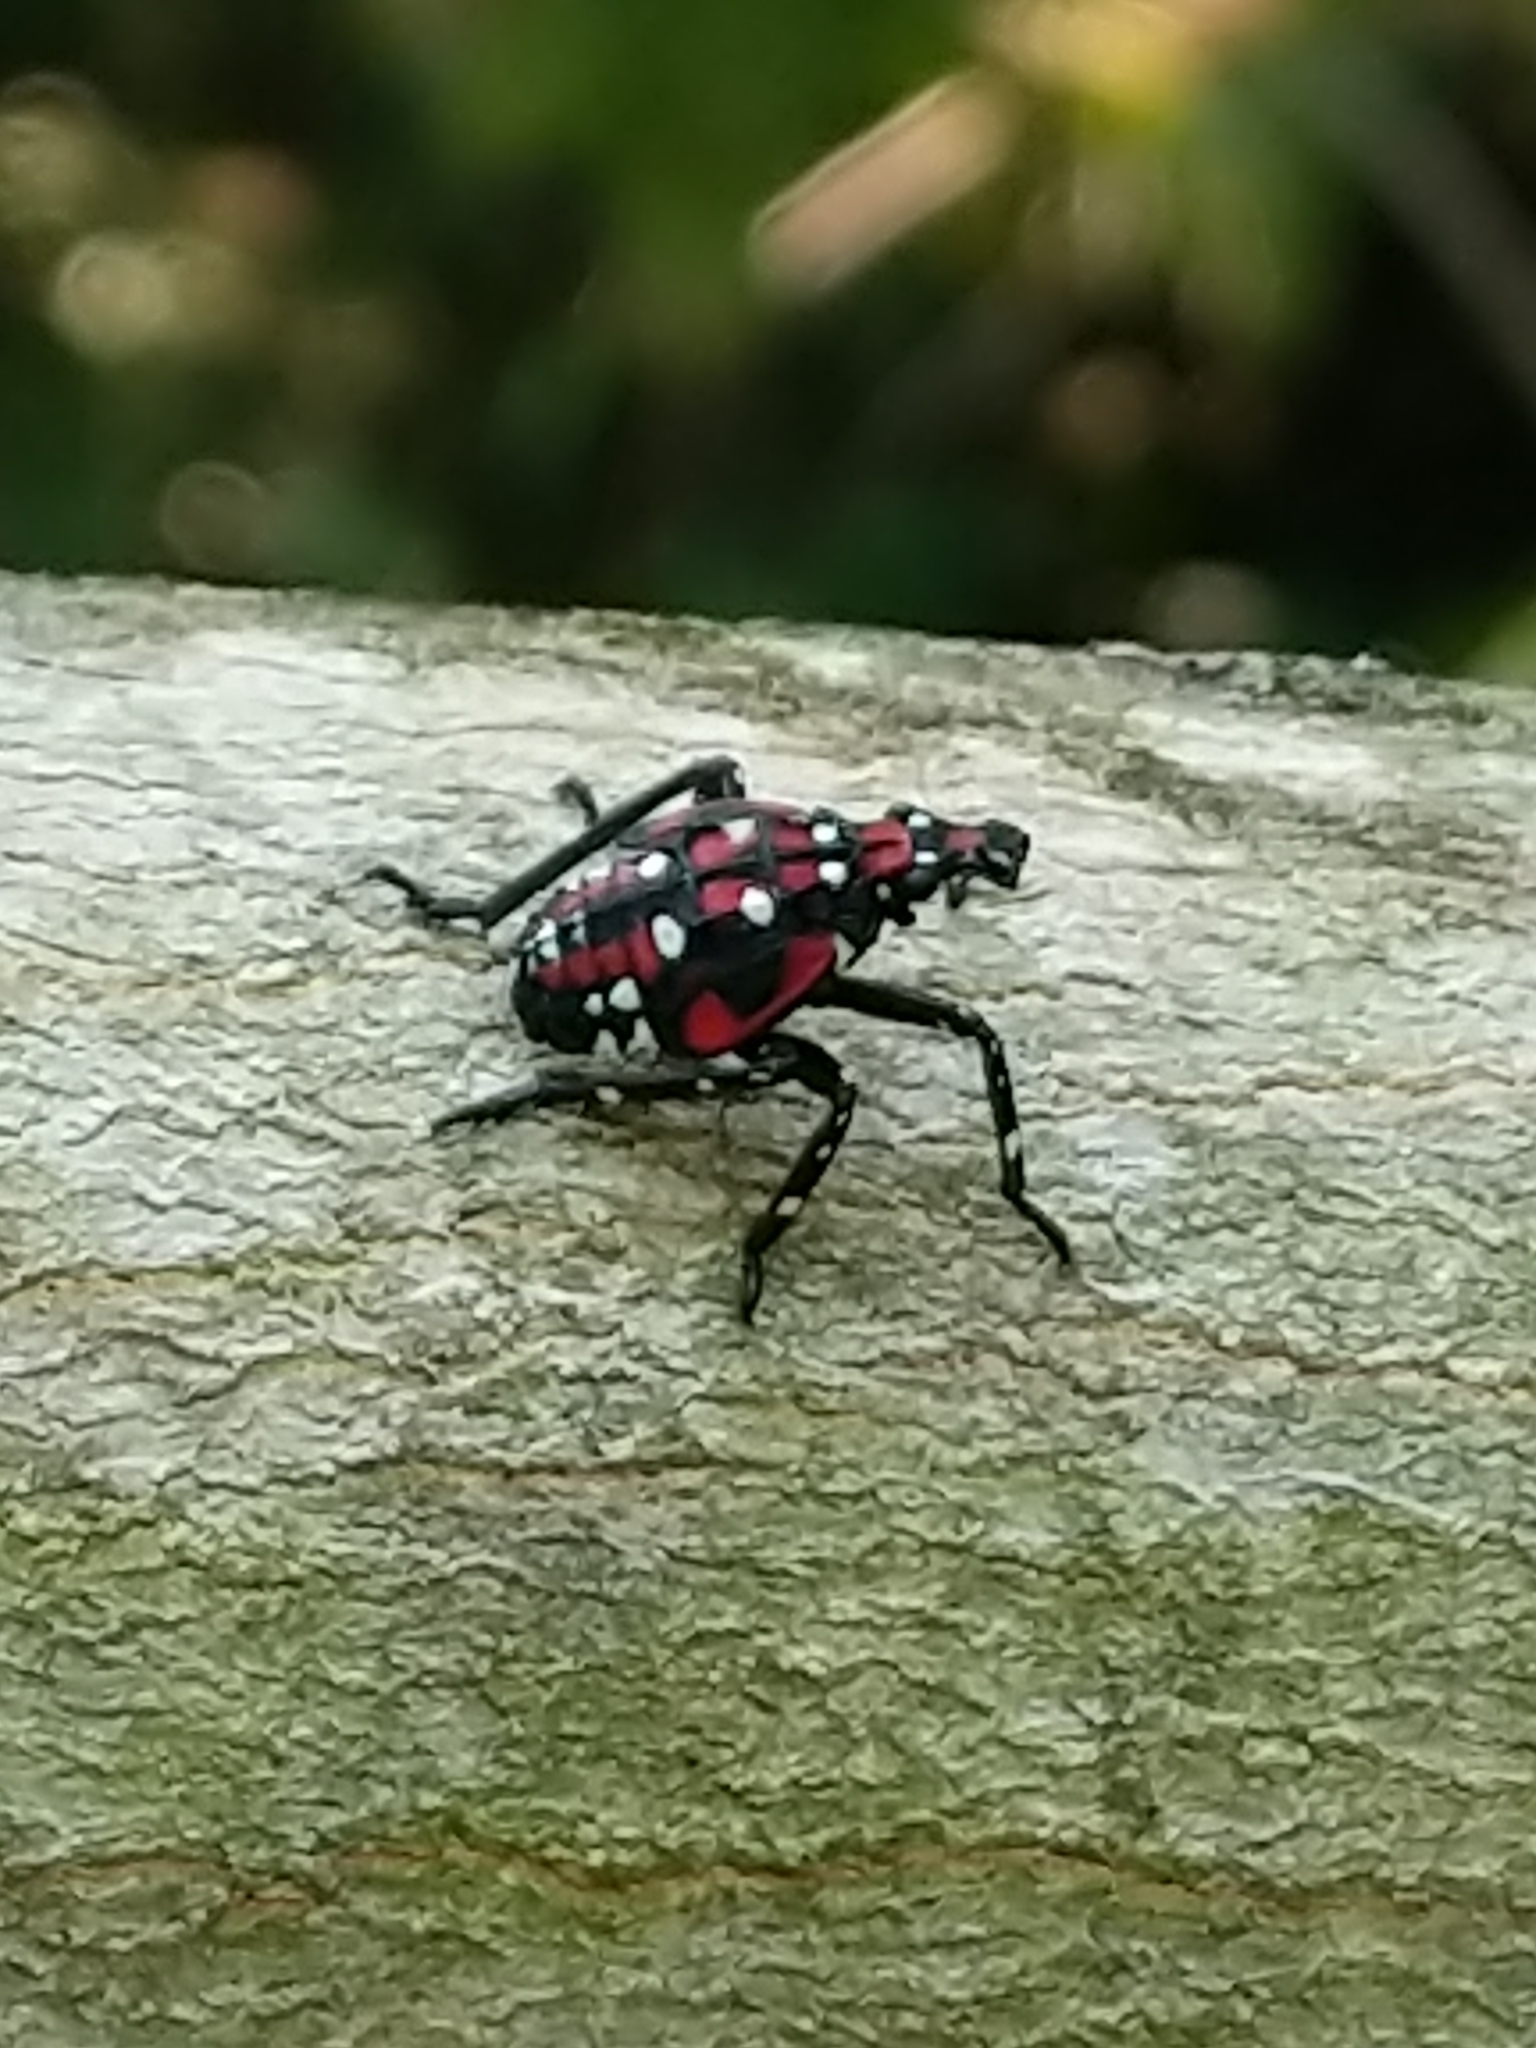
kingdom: Animalia
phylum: Arthropoda
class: Insecta
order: Hemiptera
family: Fulgoridae
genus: Lycorma
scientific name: Lycorma delicatula
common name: Spotted lanternfly
